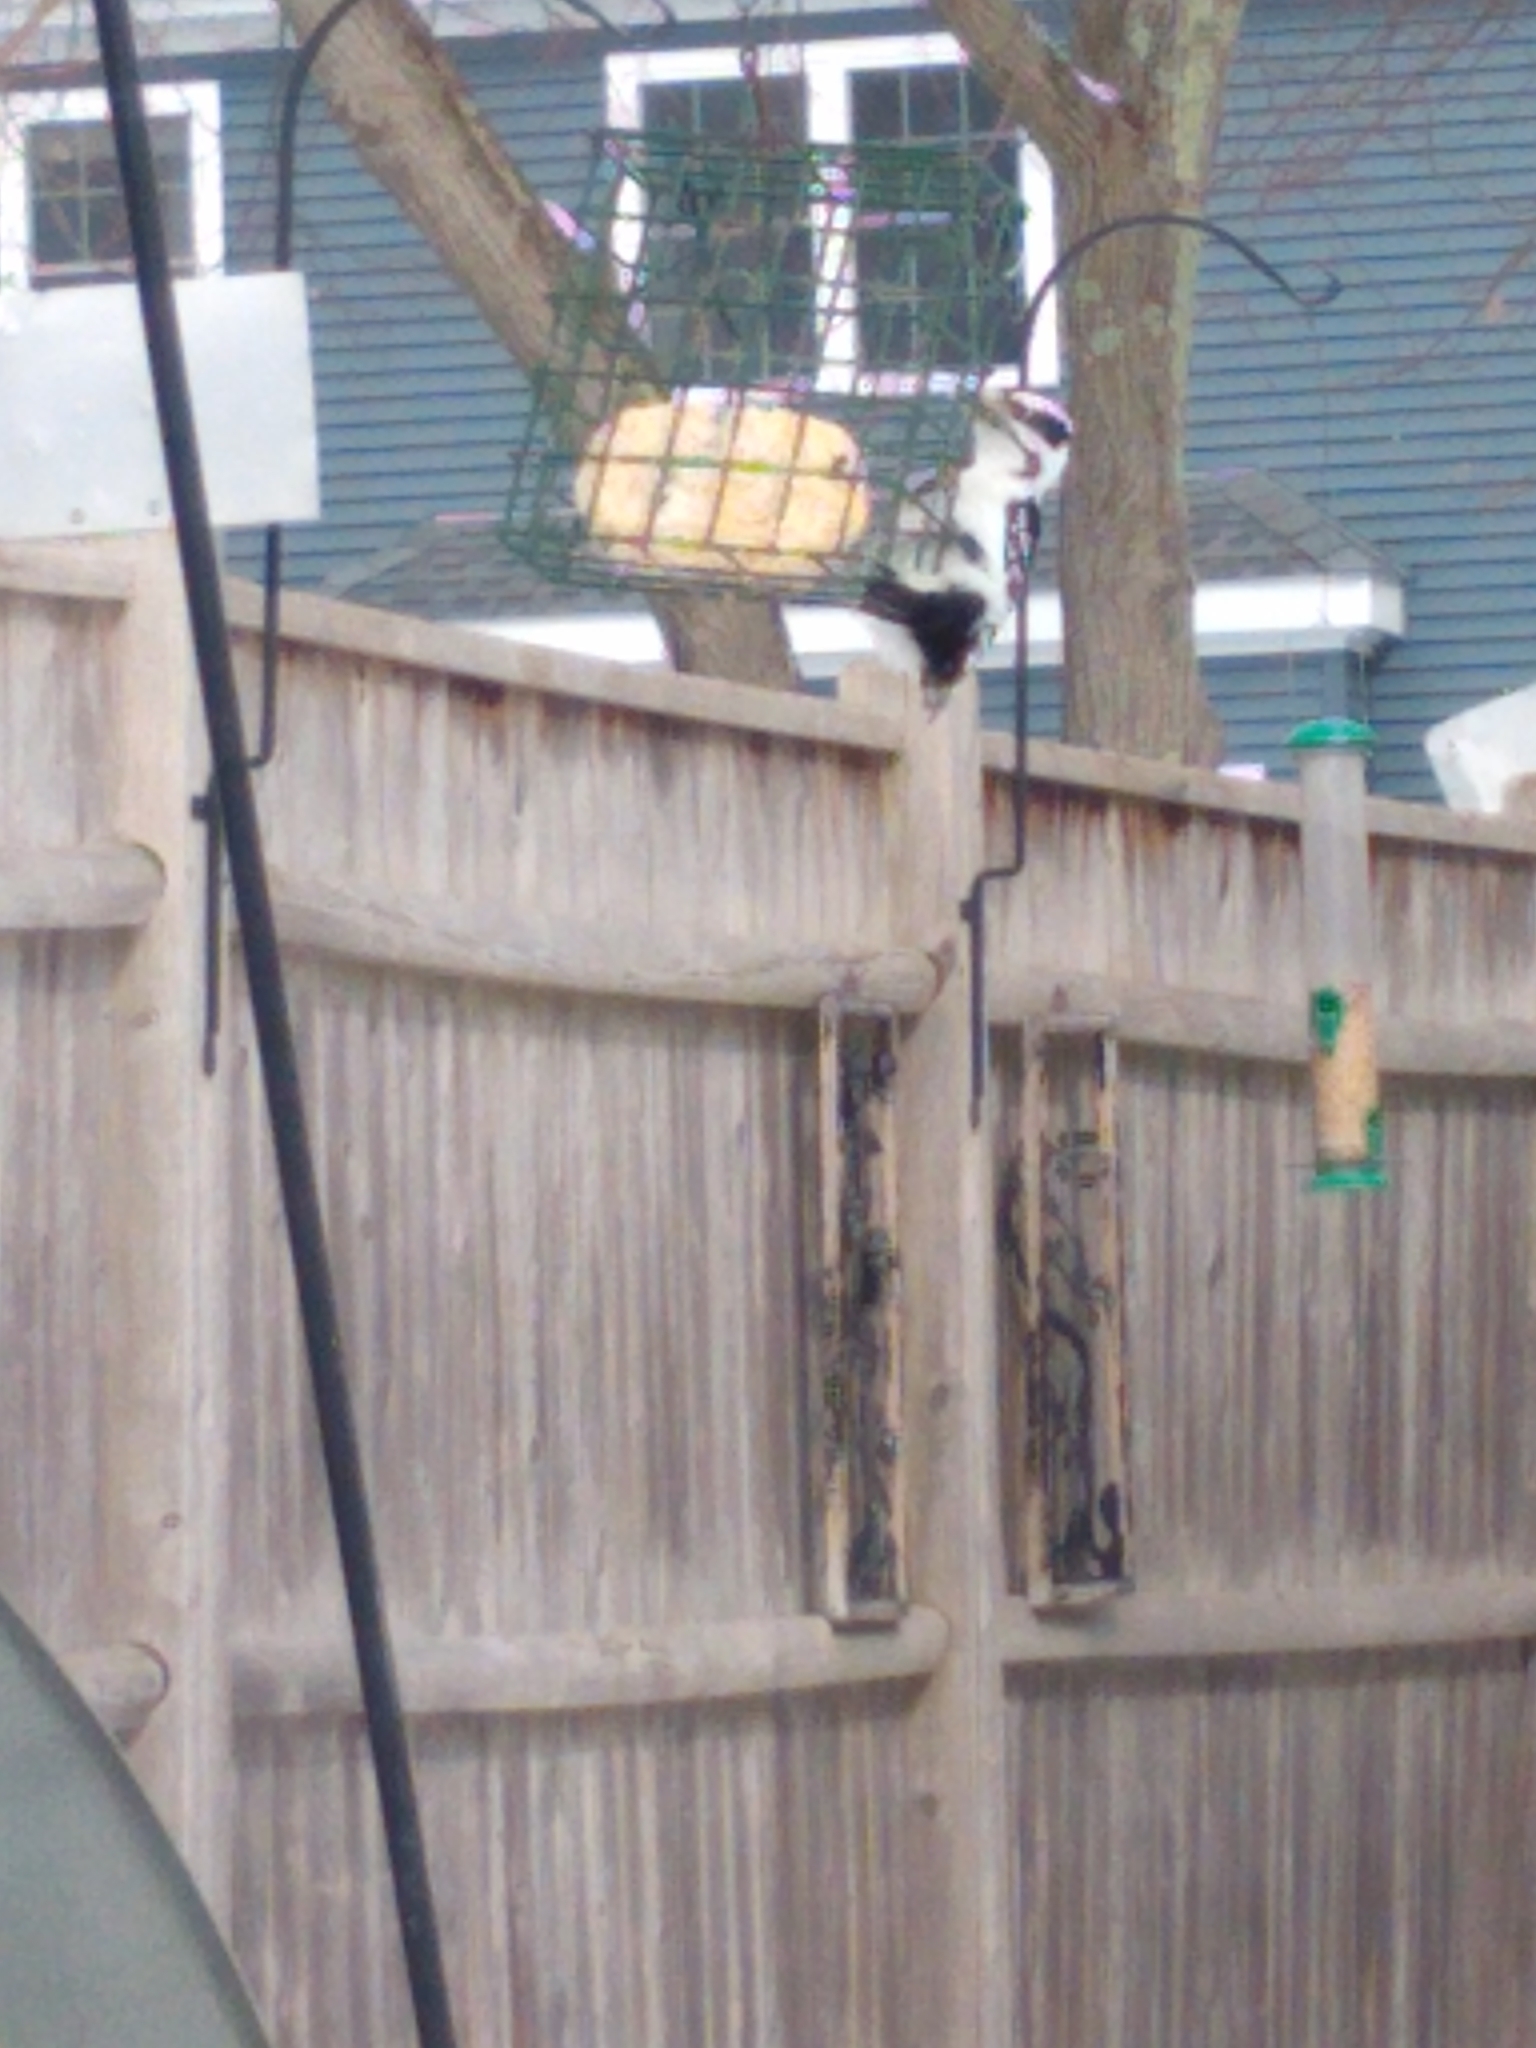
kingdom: Animalia
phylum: Chordata
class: Aves
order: Piciformes
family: Picidae
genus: Dryobates
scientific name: Dryobates pubescens
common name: Downy woodpecker
